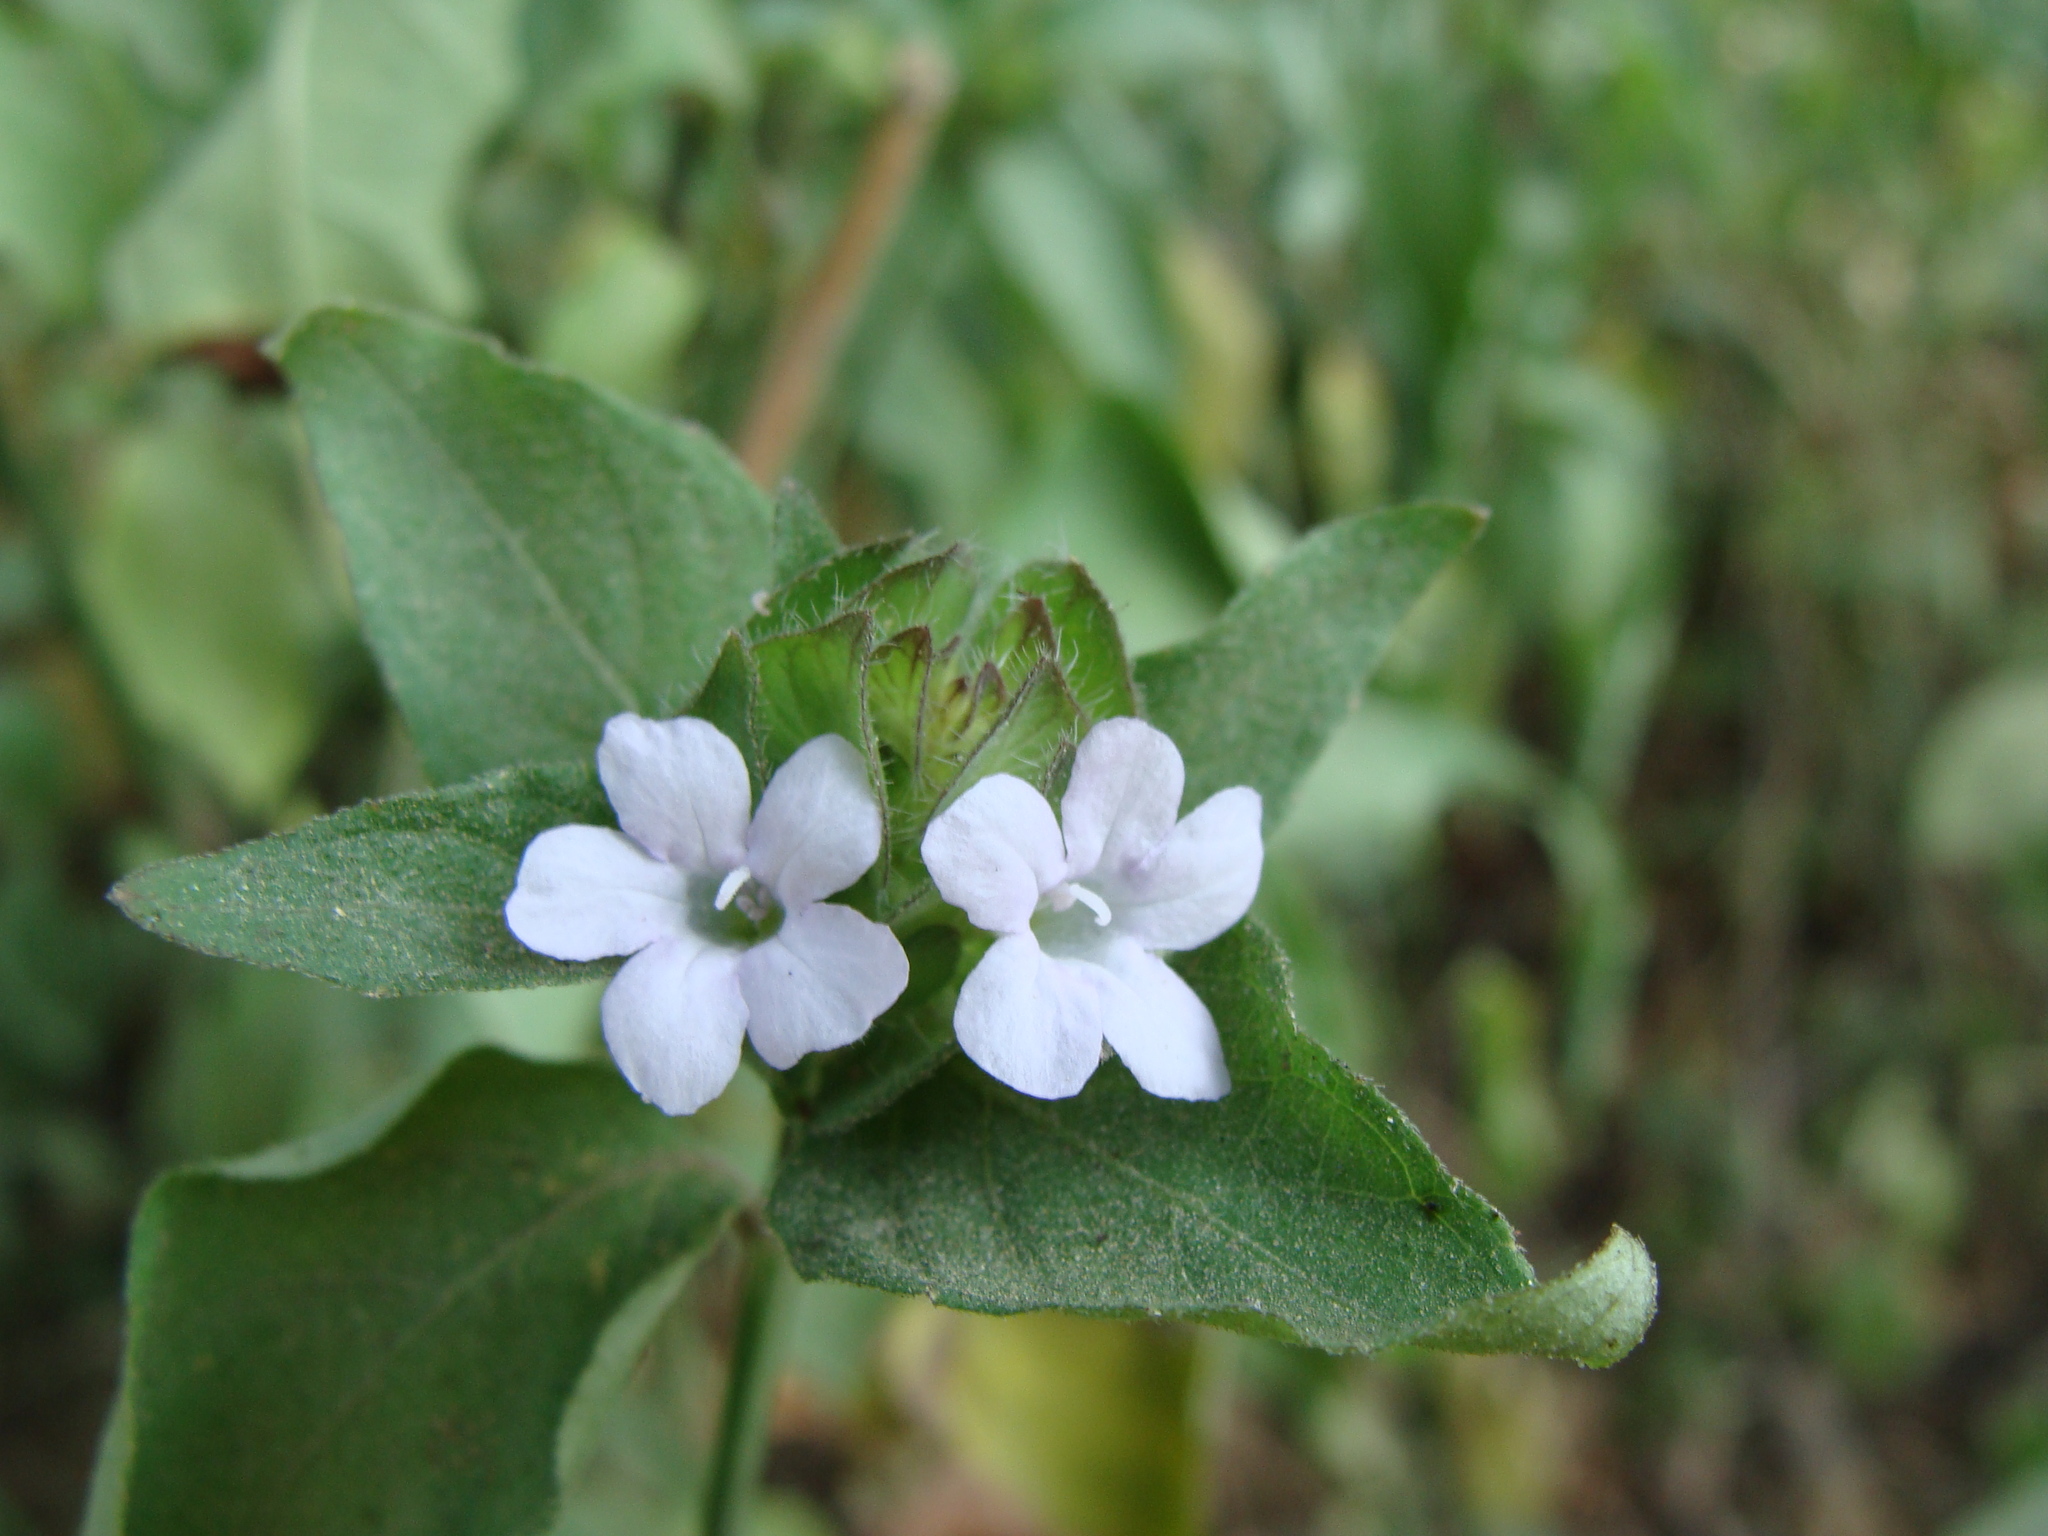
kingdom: Plantae
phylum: Tracheophyta
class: Magnoliopsida
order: Lamiales
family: Acanthaceae
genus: Ruellia
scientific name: Ruellia blechum
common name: Browne's blechum
